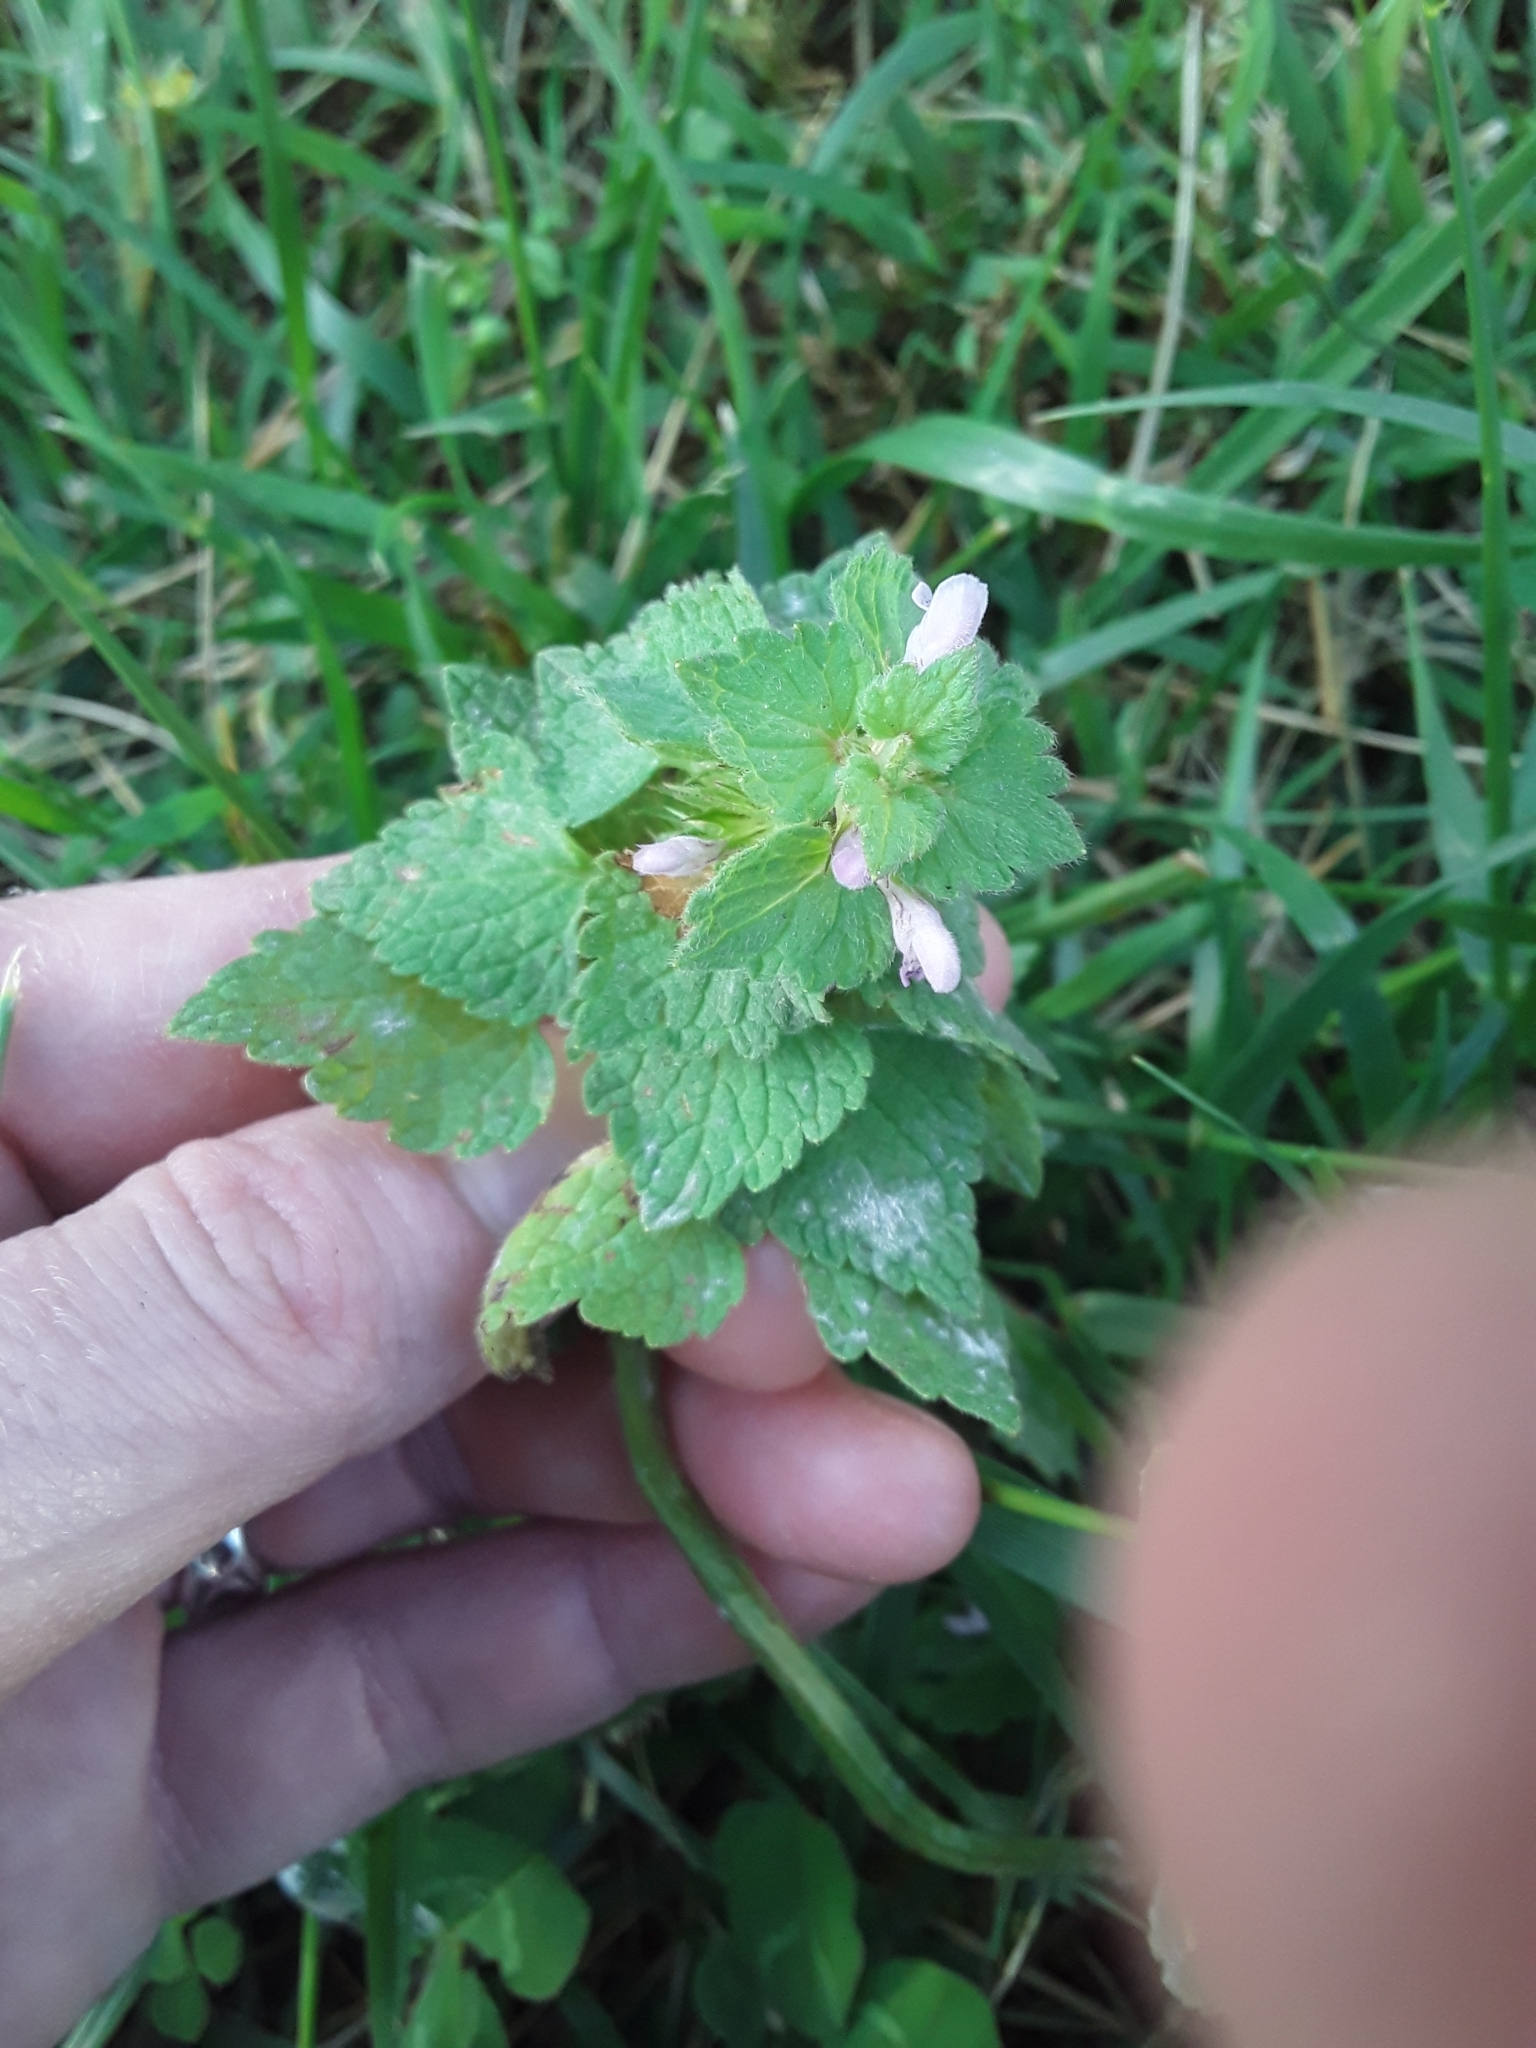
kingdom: Plantae
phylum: Tracheophyta
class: Magnoliopsida
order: Lamiales
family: Lamiaceae
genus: Lamium
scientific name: Lamium purpureum
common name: Red dead-nettle
